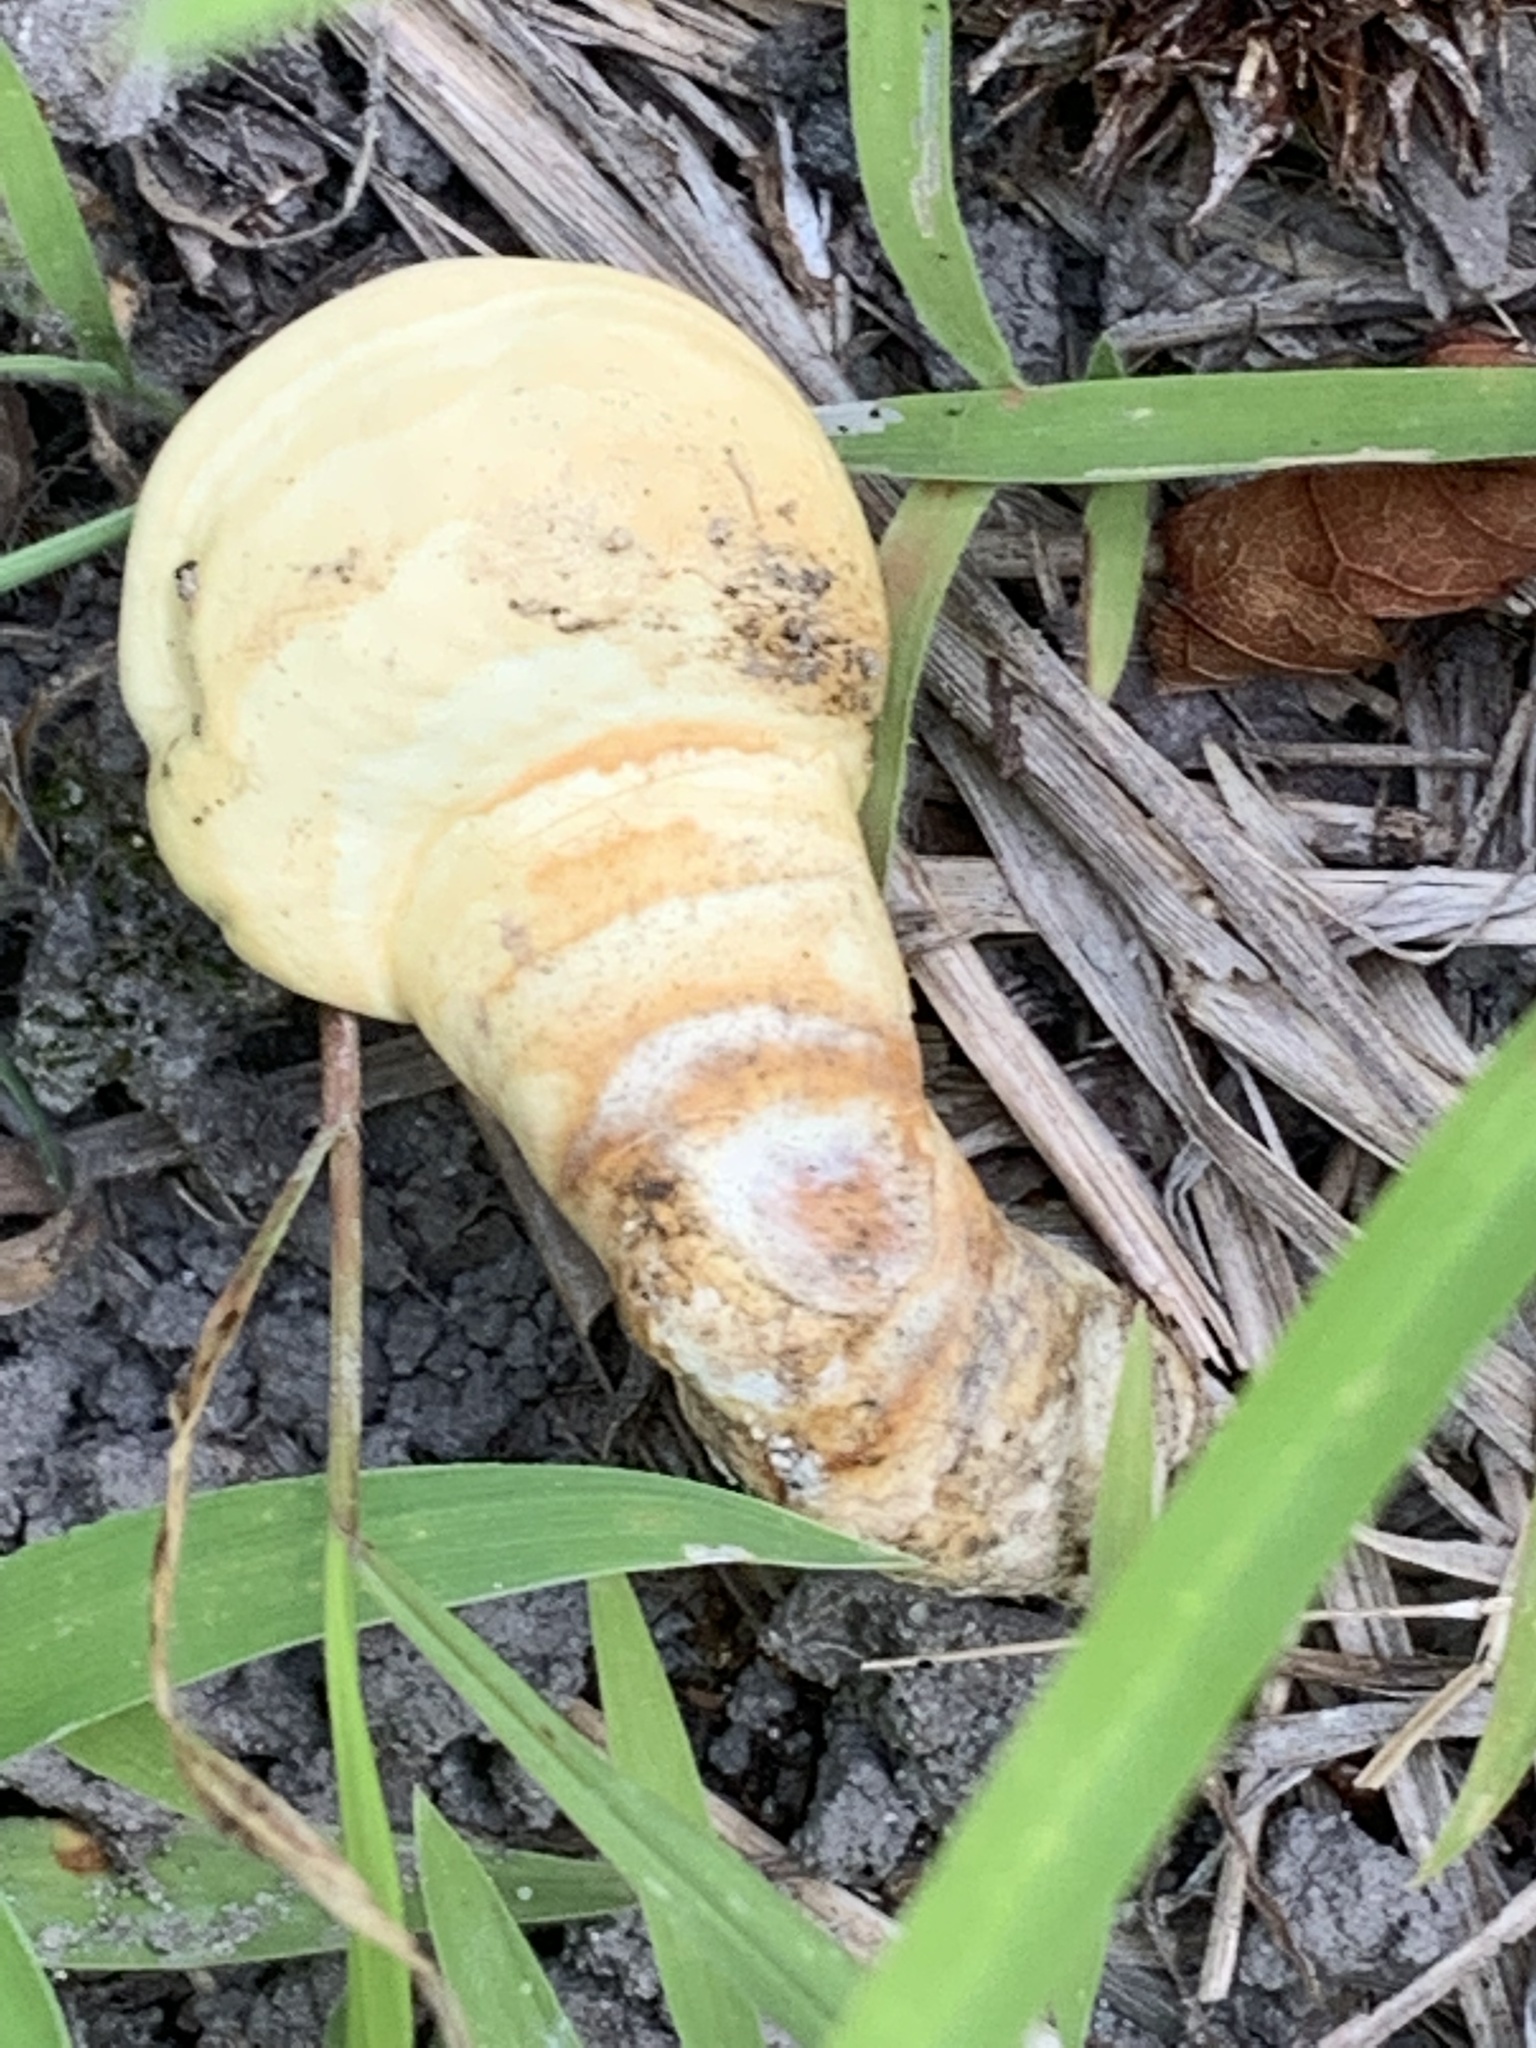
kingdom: Fungi
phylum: Basidiomycota
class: Agaricomycetes
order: Polyporales
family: Polyporaceae
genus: Ganoderma
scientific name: Ganoderma
